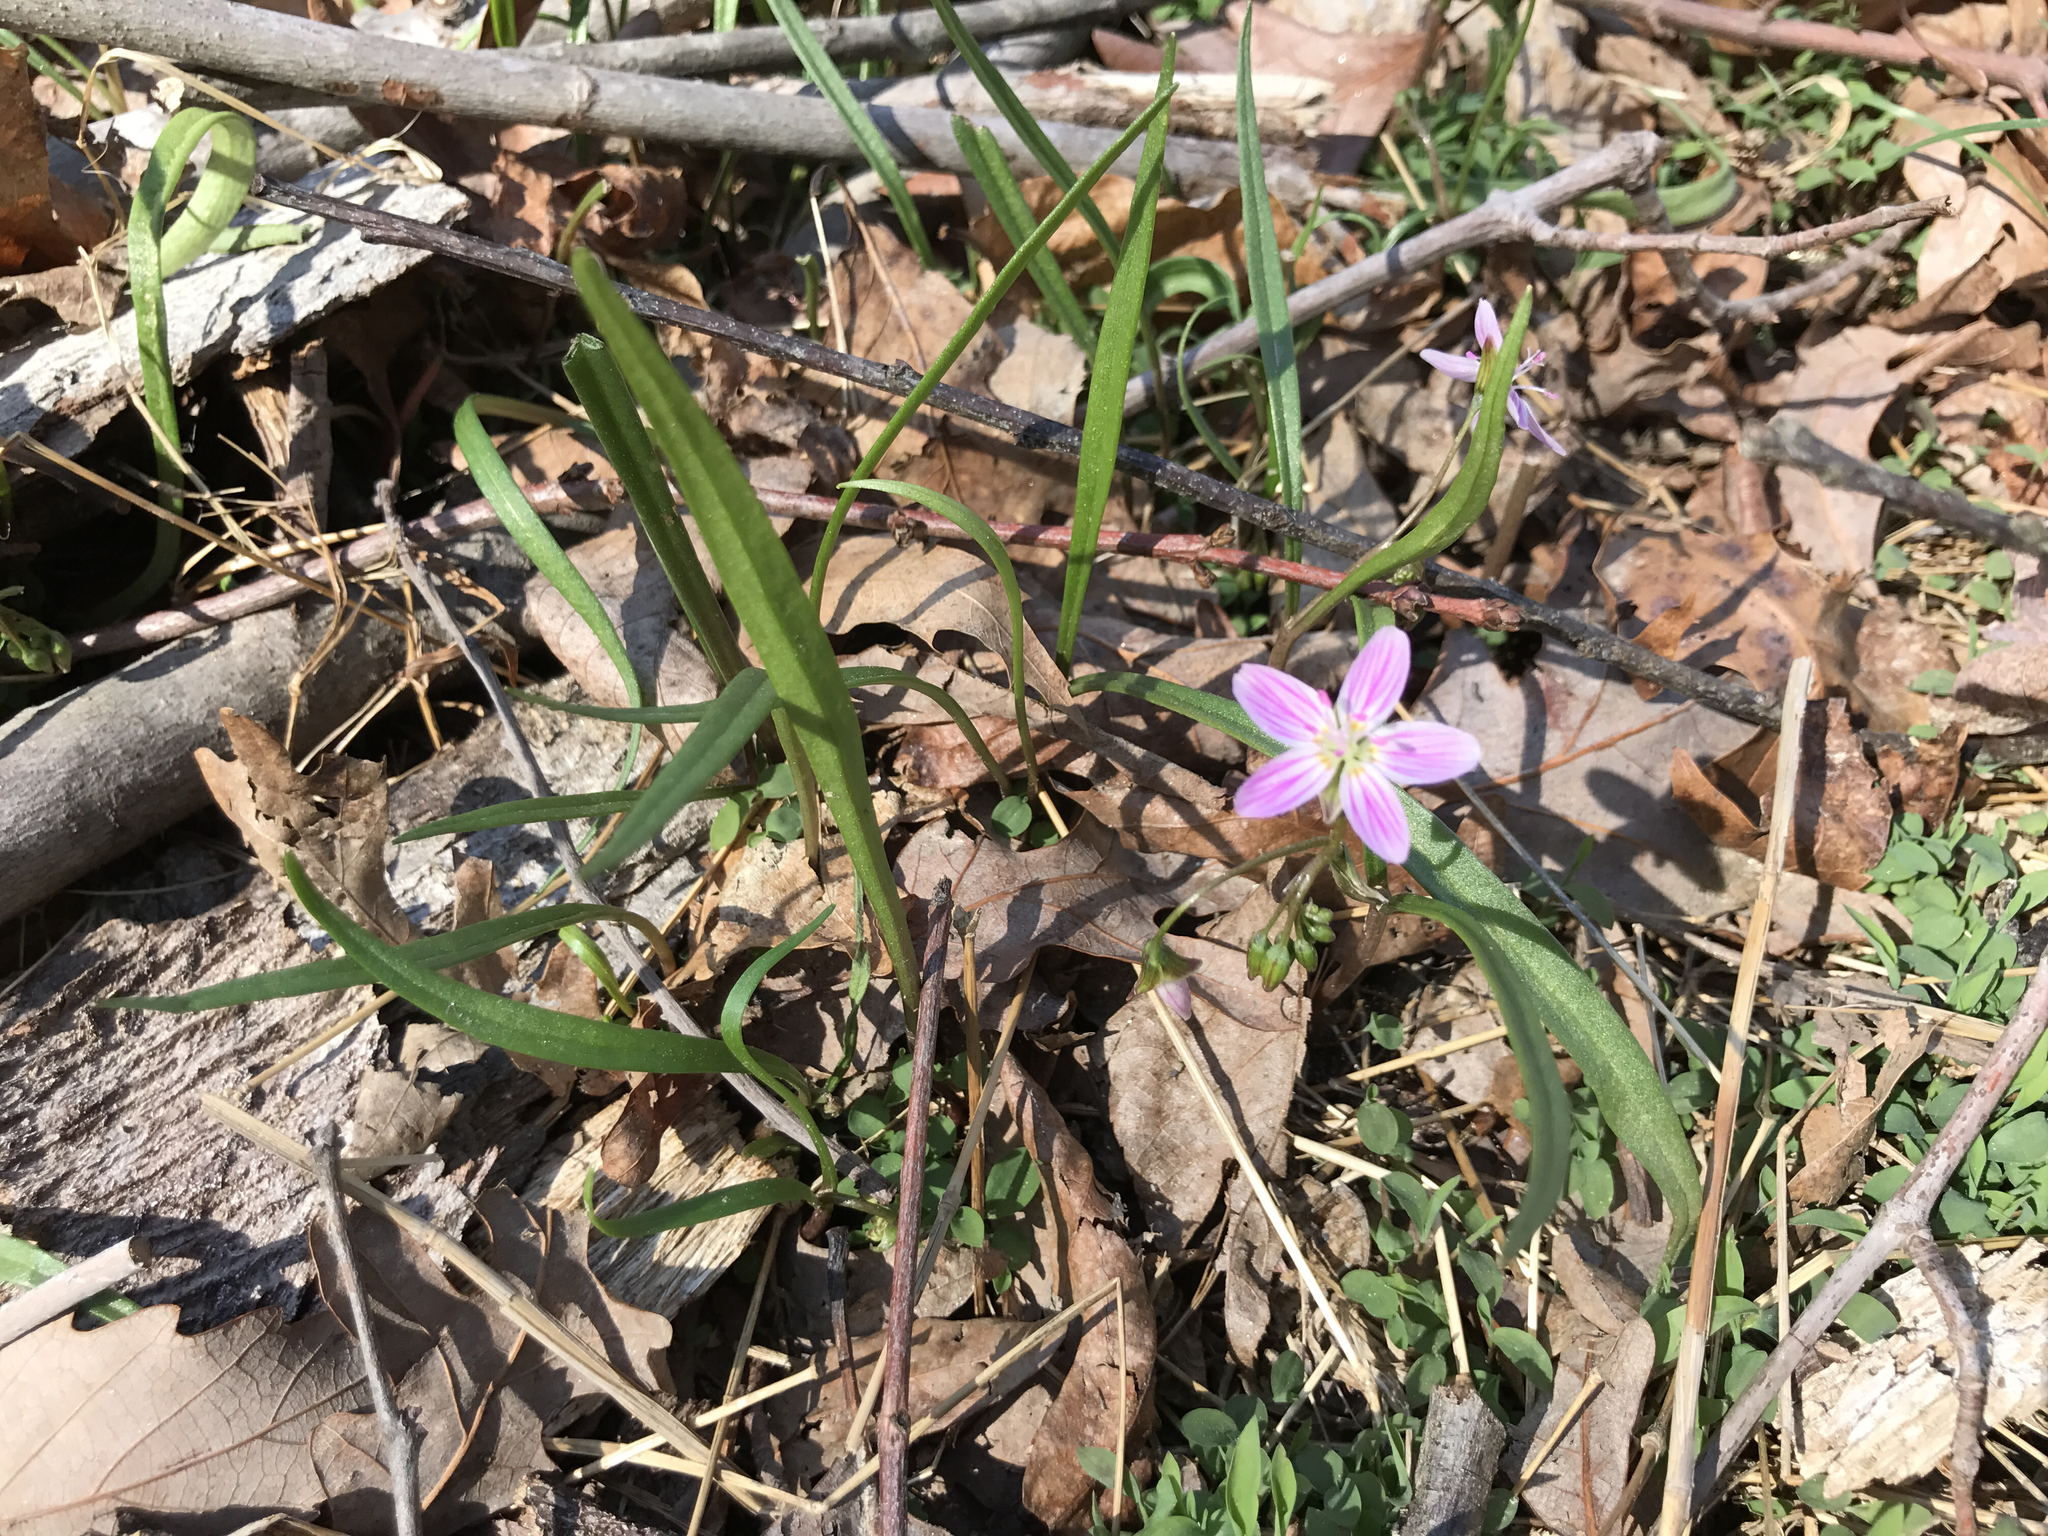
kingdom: Plantae
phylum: Tracheophyta
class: Magnoliopsida
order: Caryophyllales
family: Montiaceae
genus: Claytonia
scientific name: Claytonia virginica
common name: Virginia springbeauty
